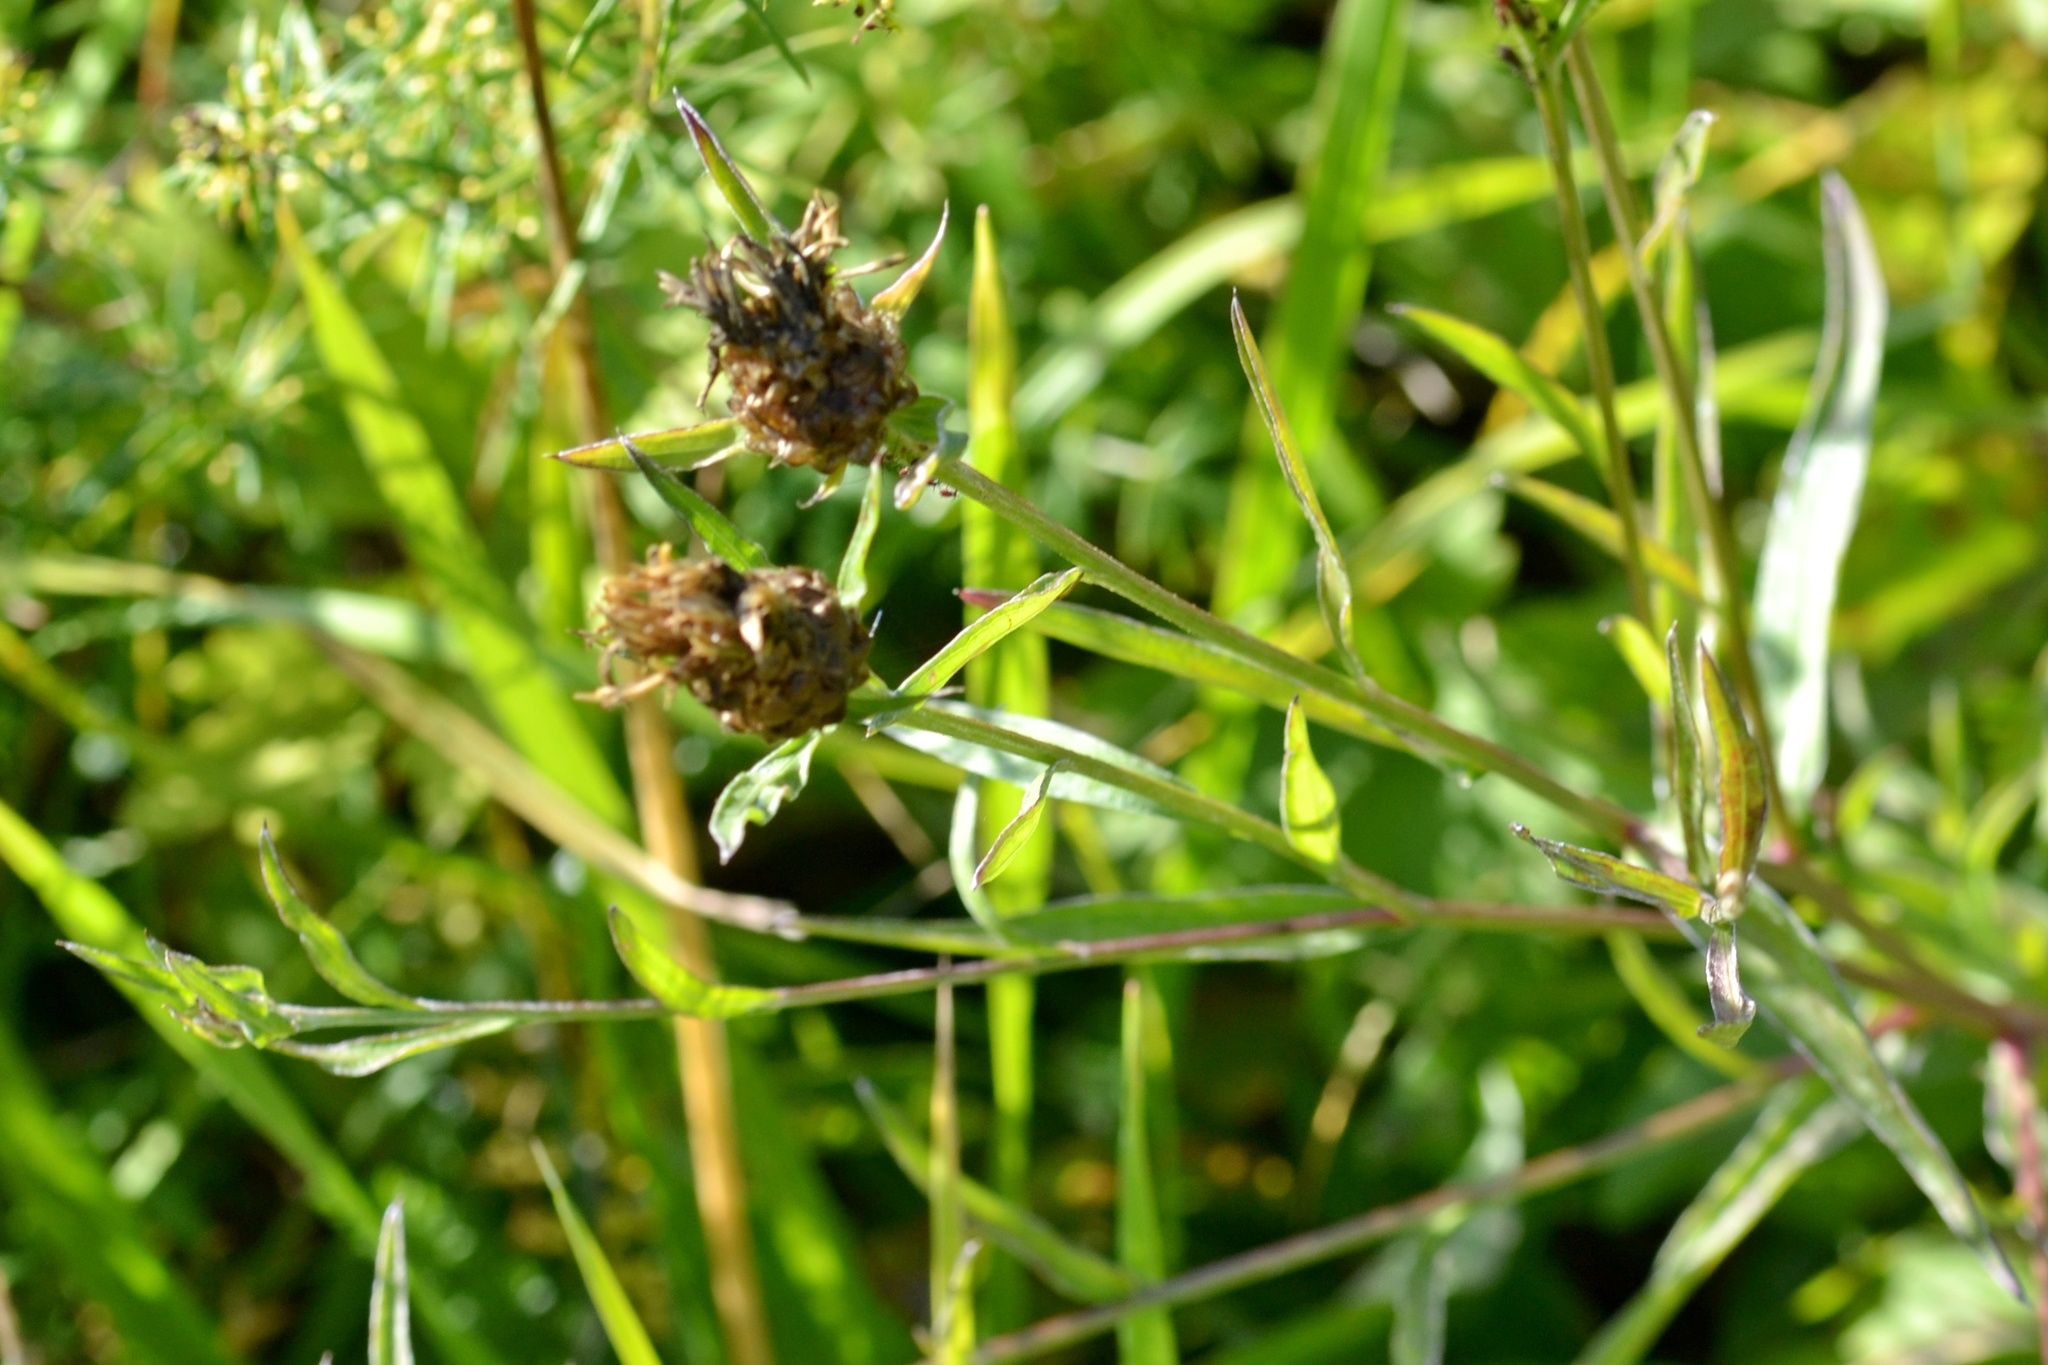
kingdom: Plantae
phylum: Tracheophyta
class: Magnoliopsida
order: Asterales
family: Asteraceae
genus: Centaurea
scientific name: Centaurea jacea
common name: Brown knapweed
